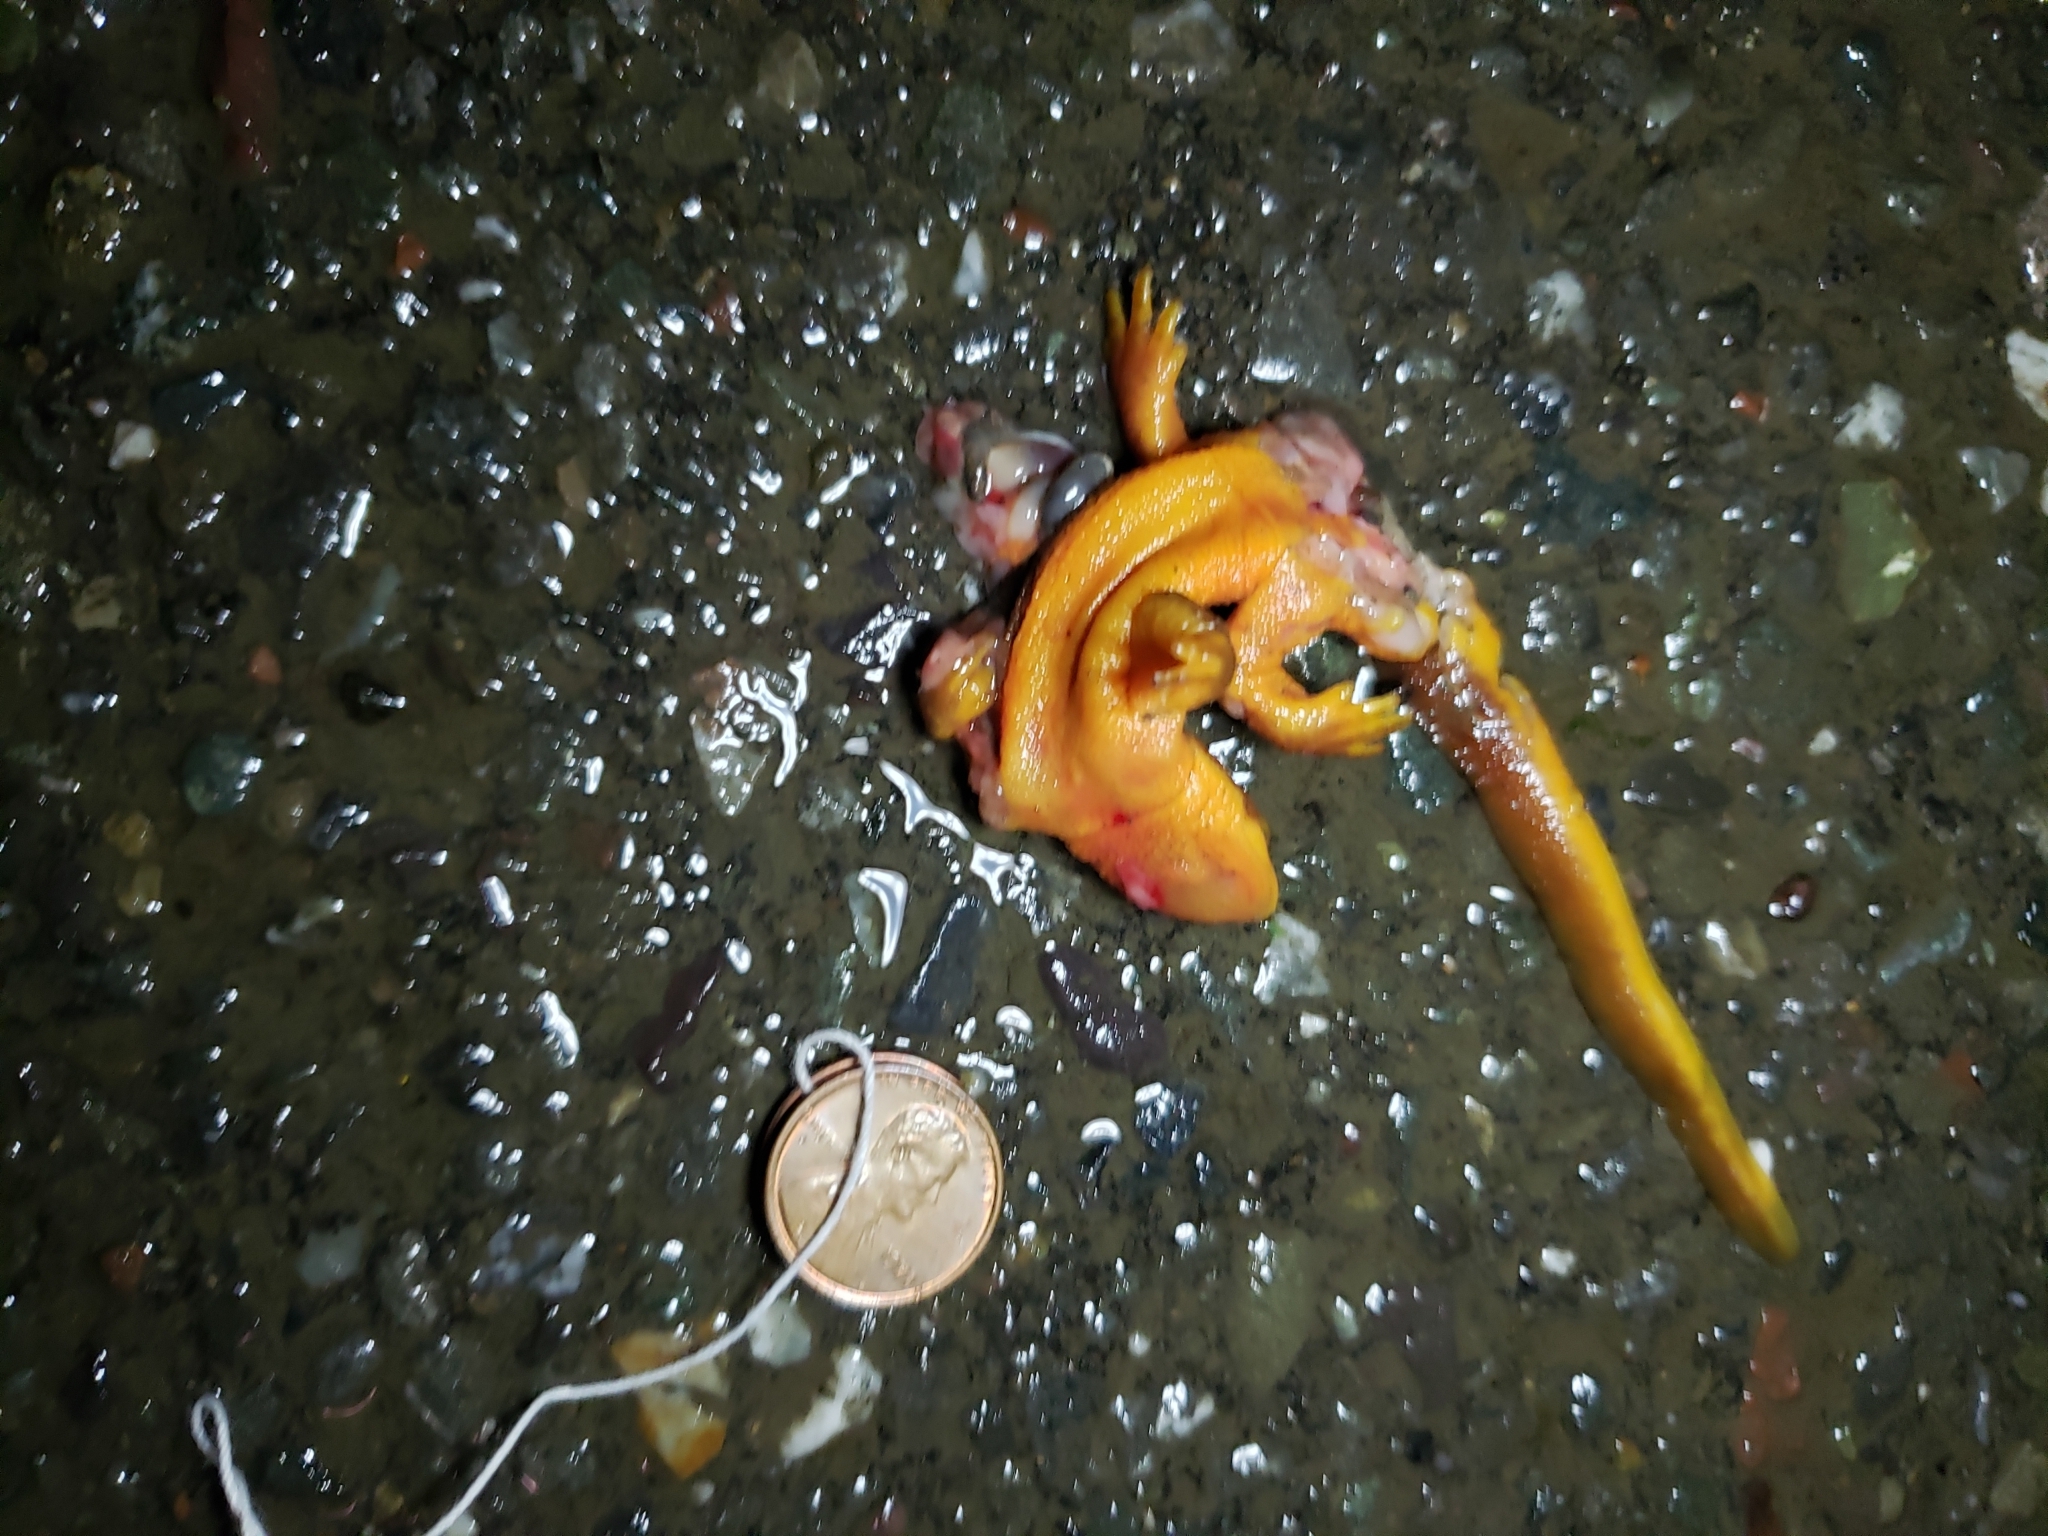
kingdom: Animalia
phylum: Chordata
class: Amphibia
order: Caudata
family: Salamandridae
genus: Taricha
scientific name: Taricha
